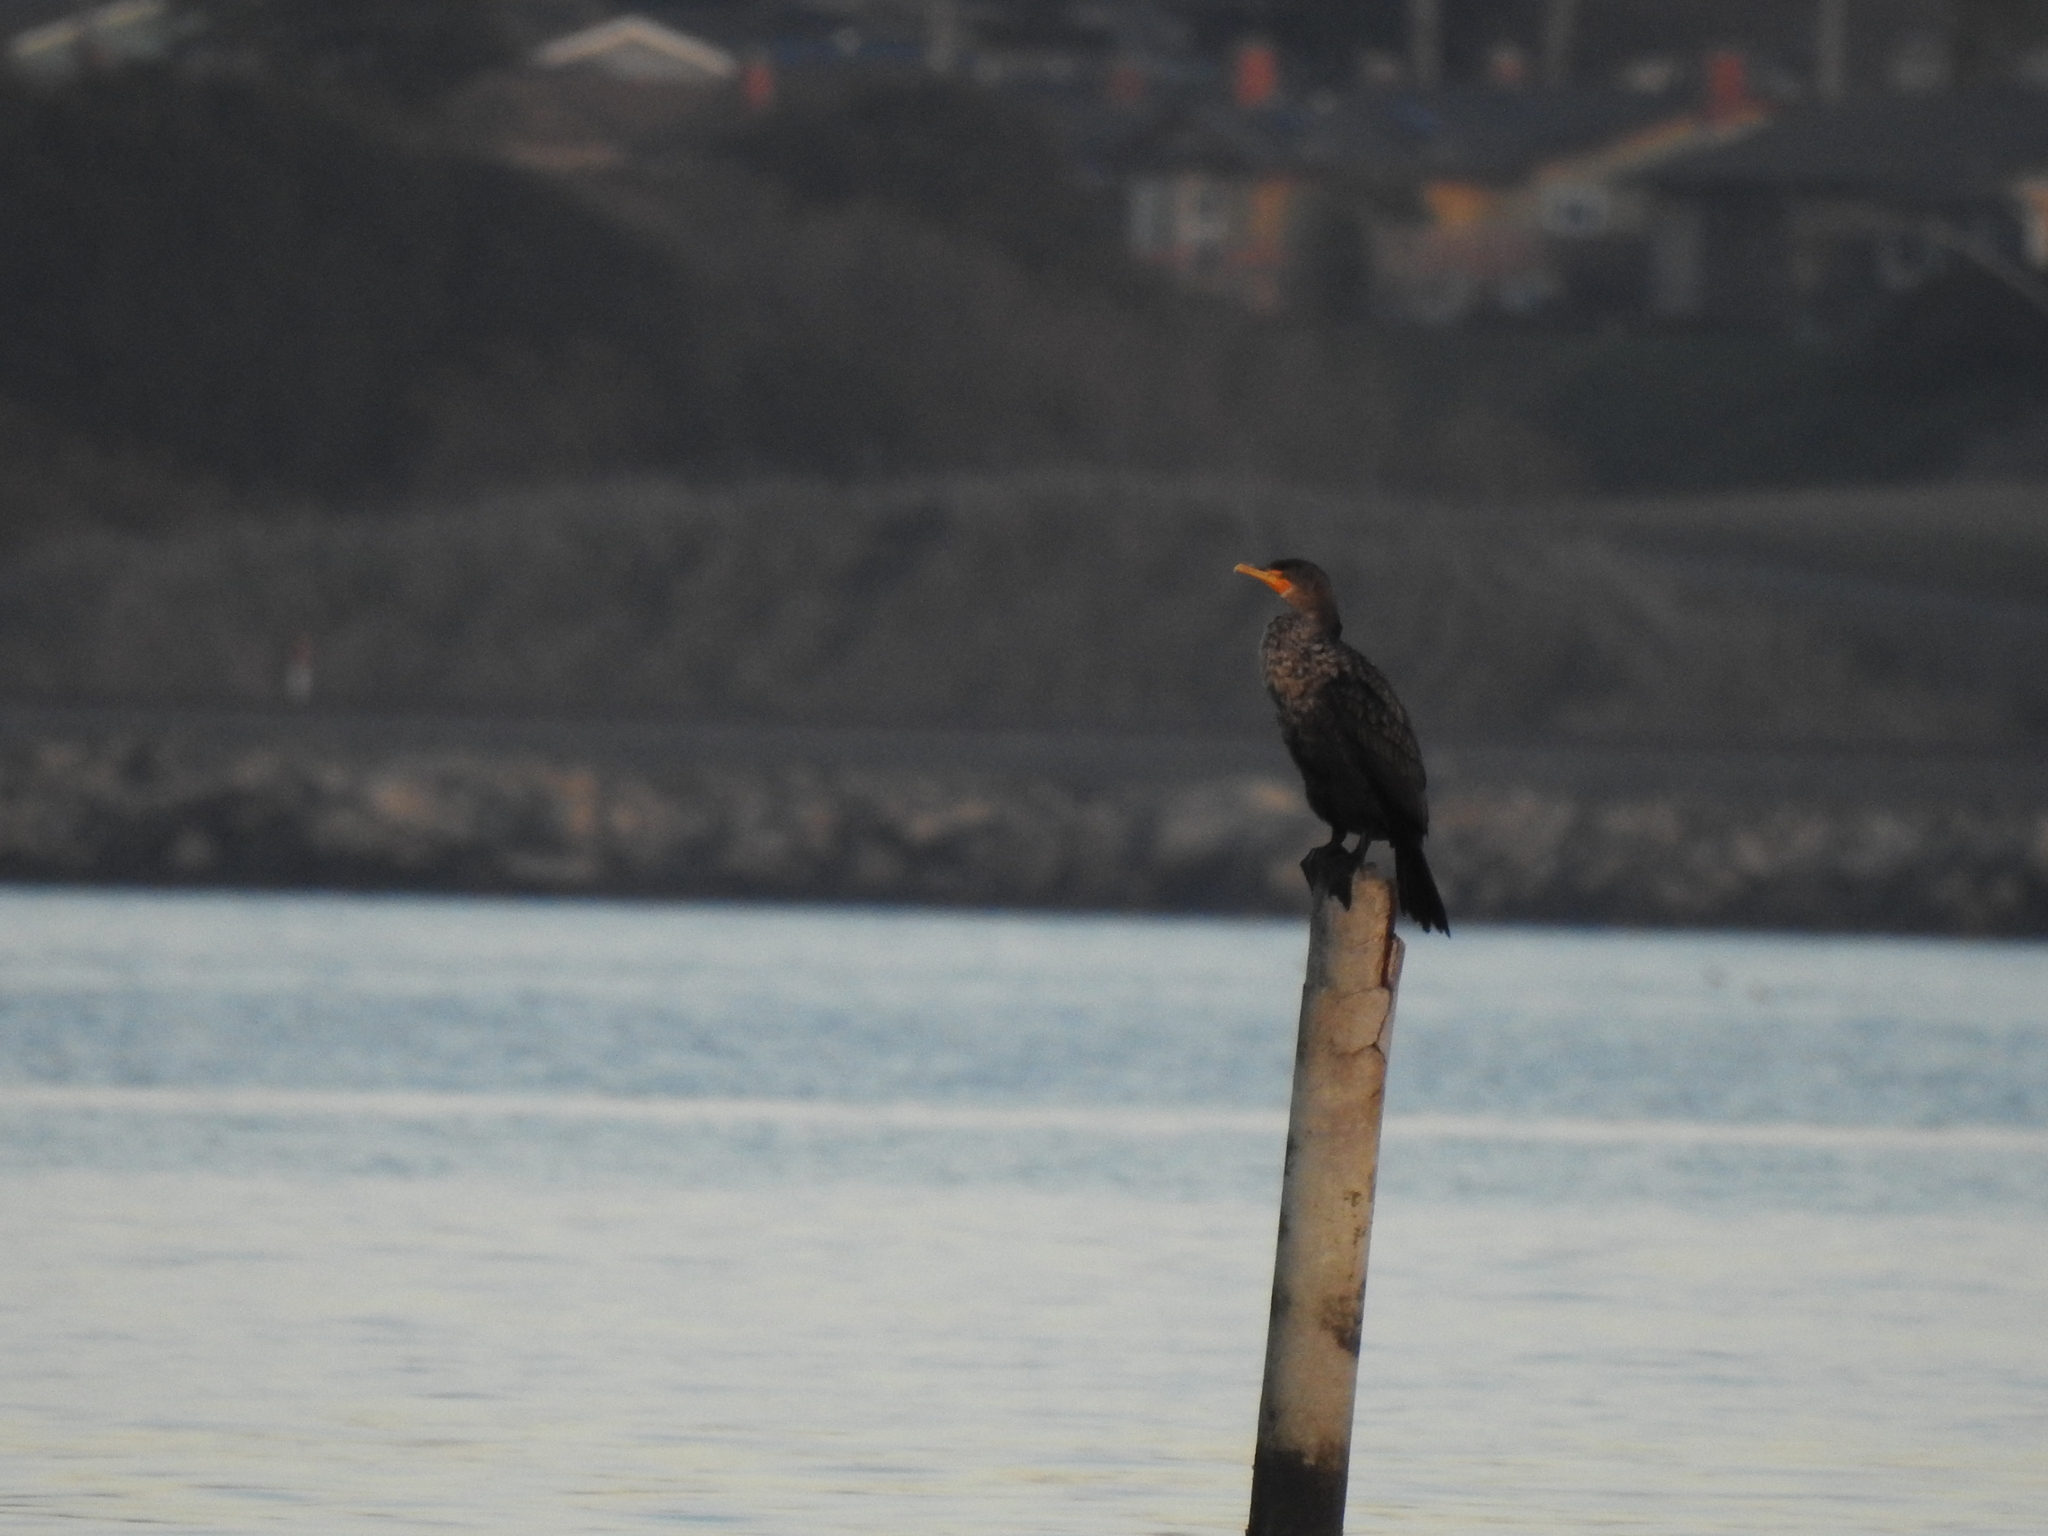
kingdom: Animalia
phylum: Chordata
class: Aves
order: Suliformes
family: Phalacrocoracidae
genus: Phalacrocorax
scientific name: Phalacrocorax auritus
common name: Double-crested cormorant
